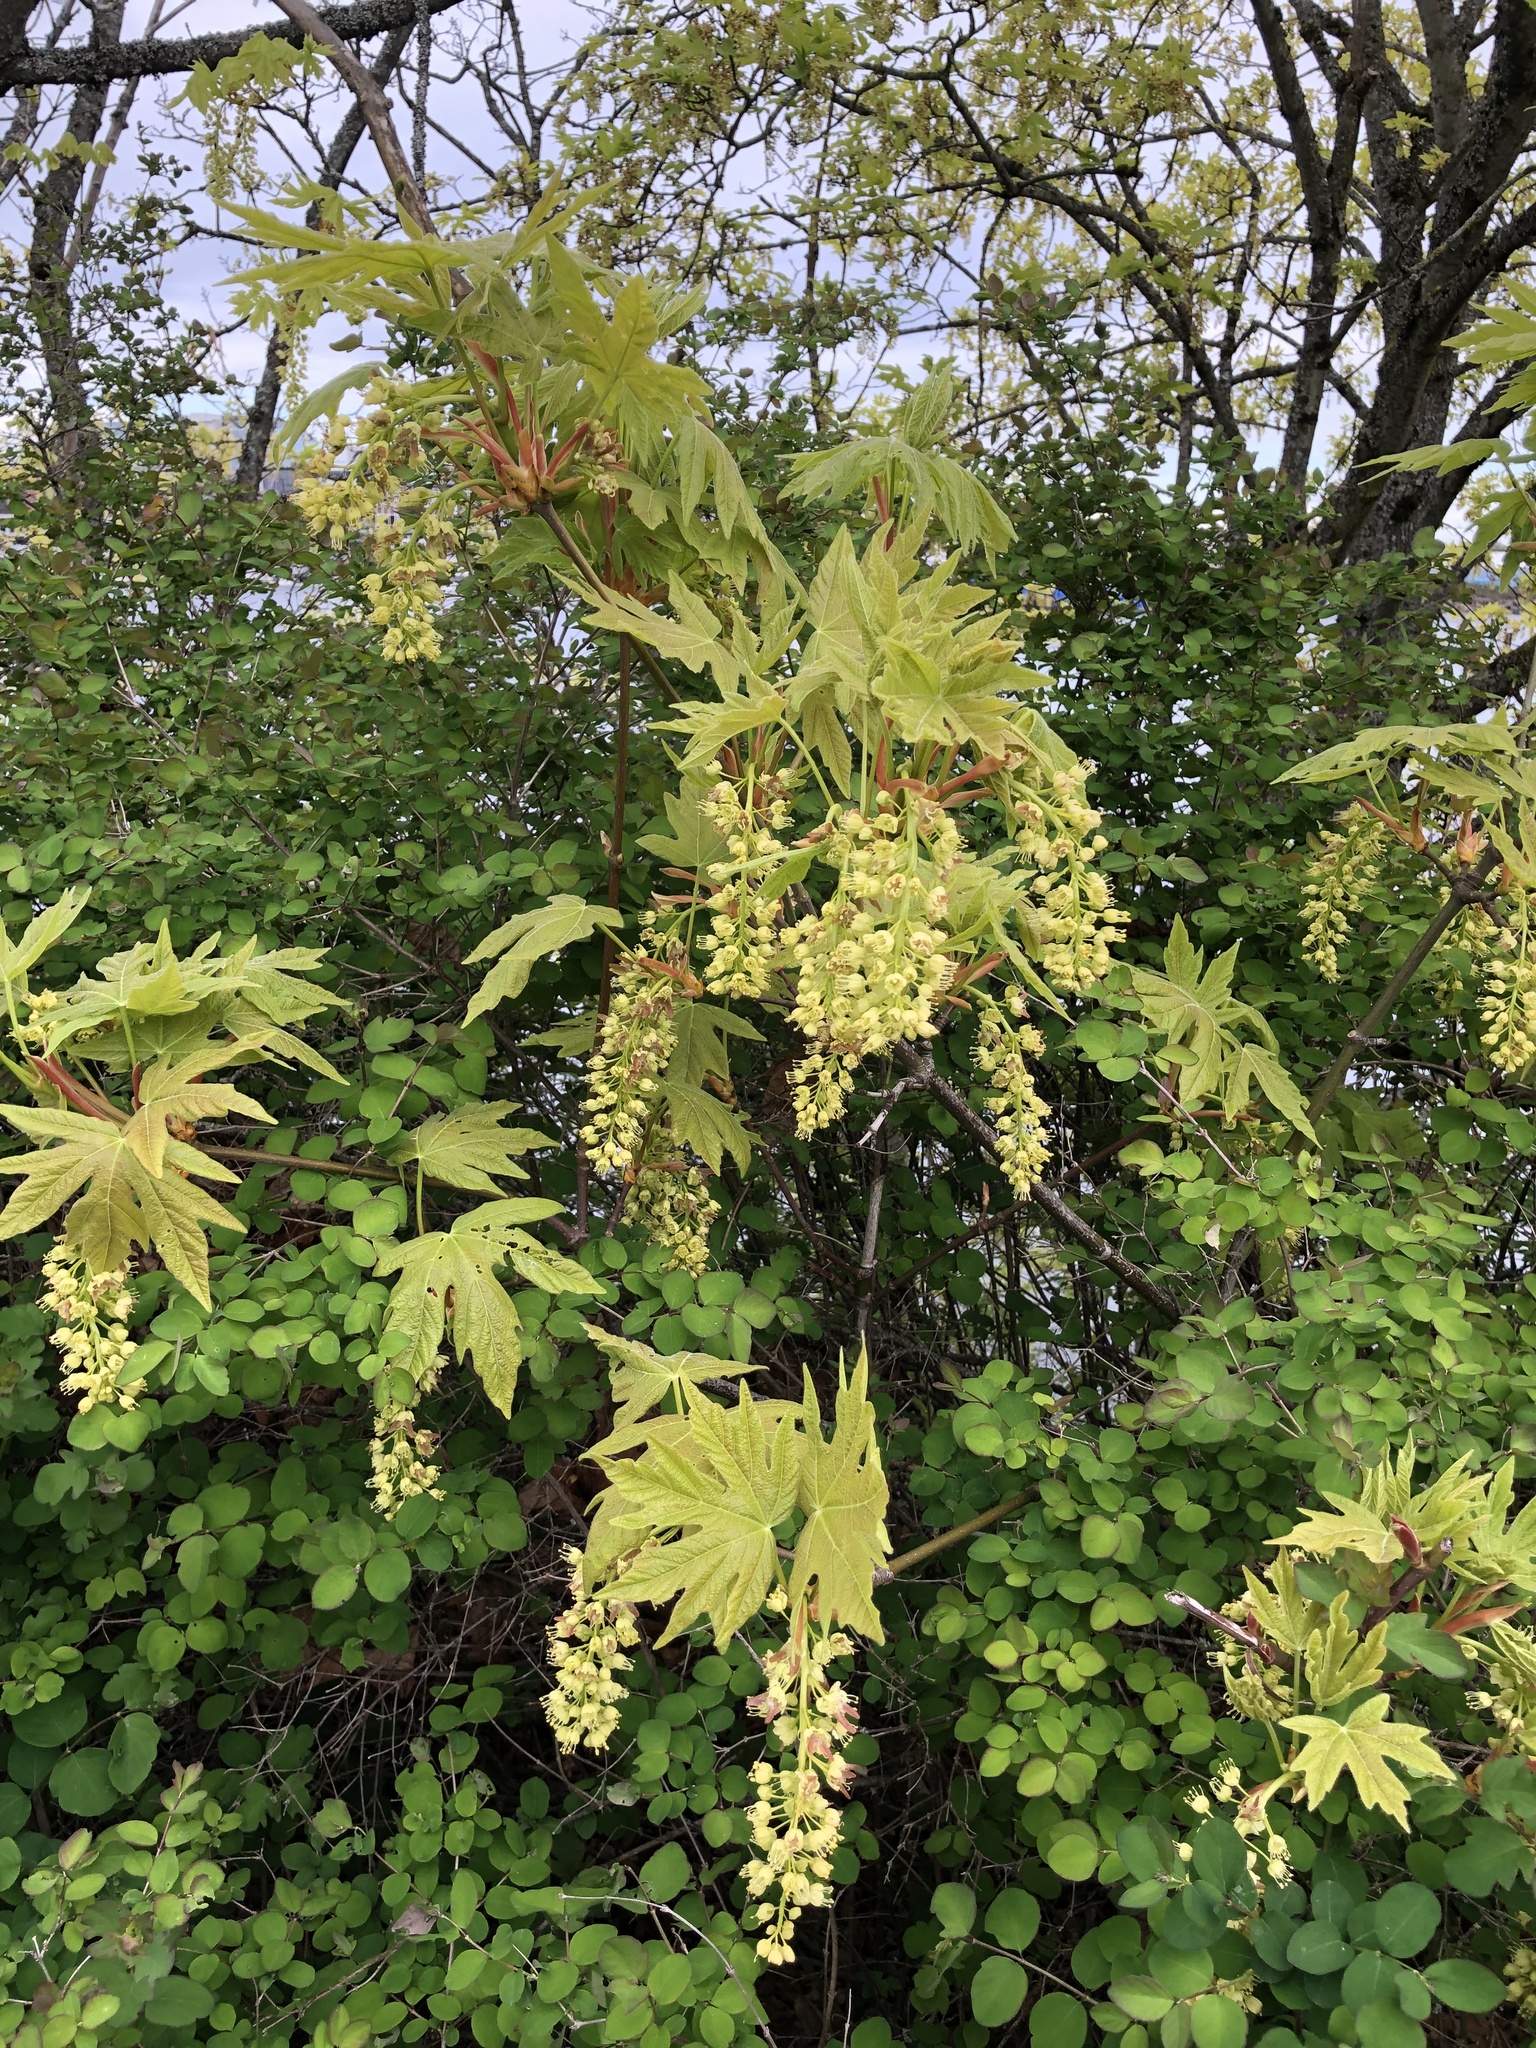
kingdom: Plantae
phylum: Tracheophyta
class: Magnoliopsida
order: Sapindales
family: Sapindaceae
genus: Acer
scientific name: Acer macrophyllum
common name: Oregon maple
